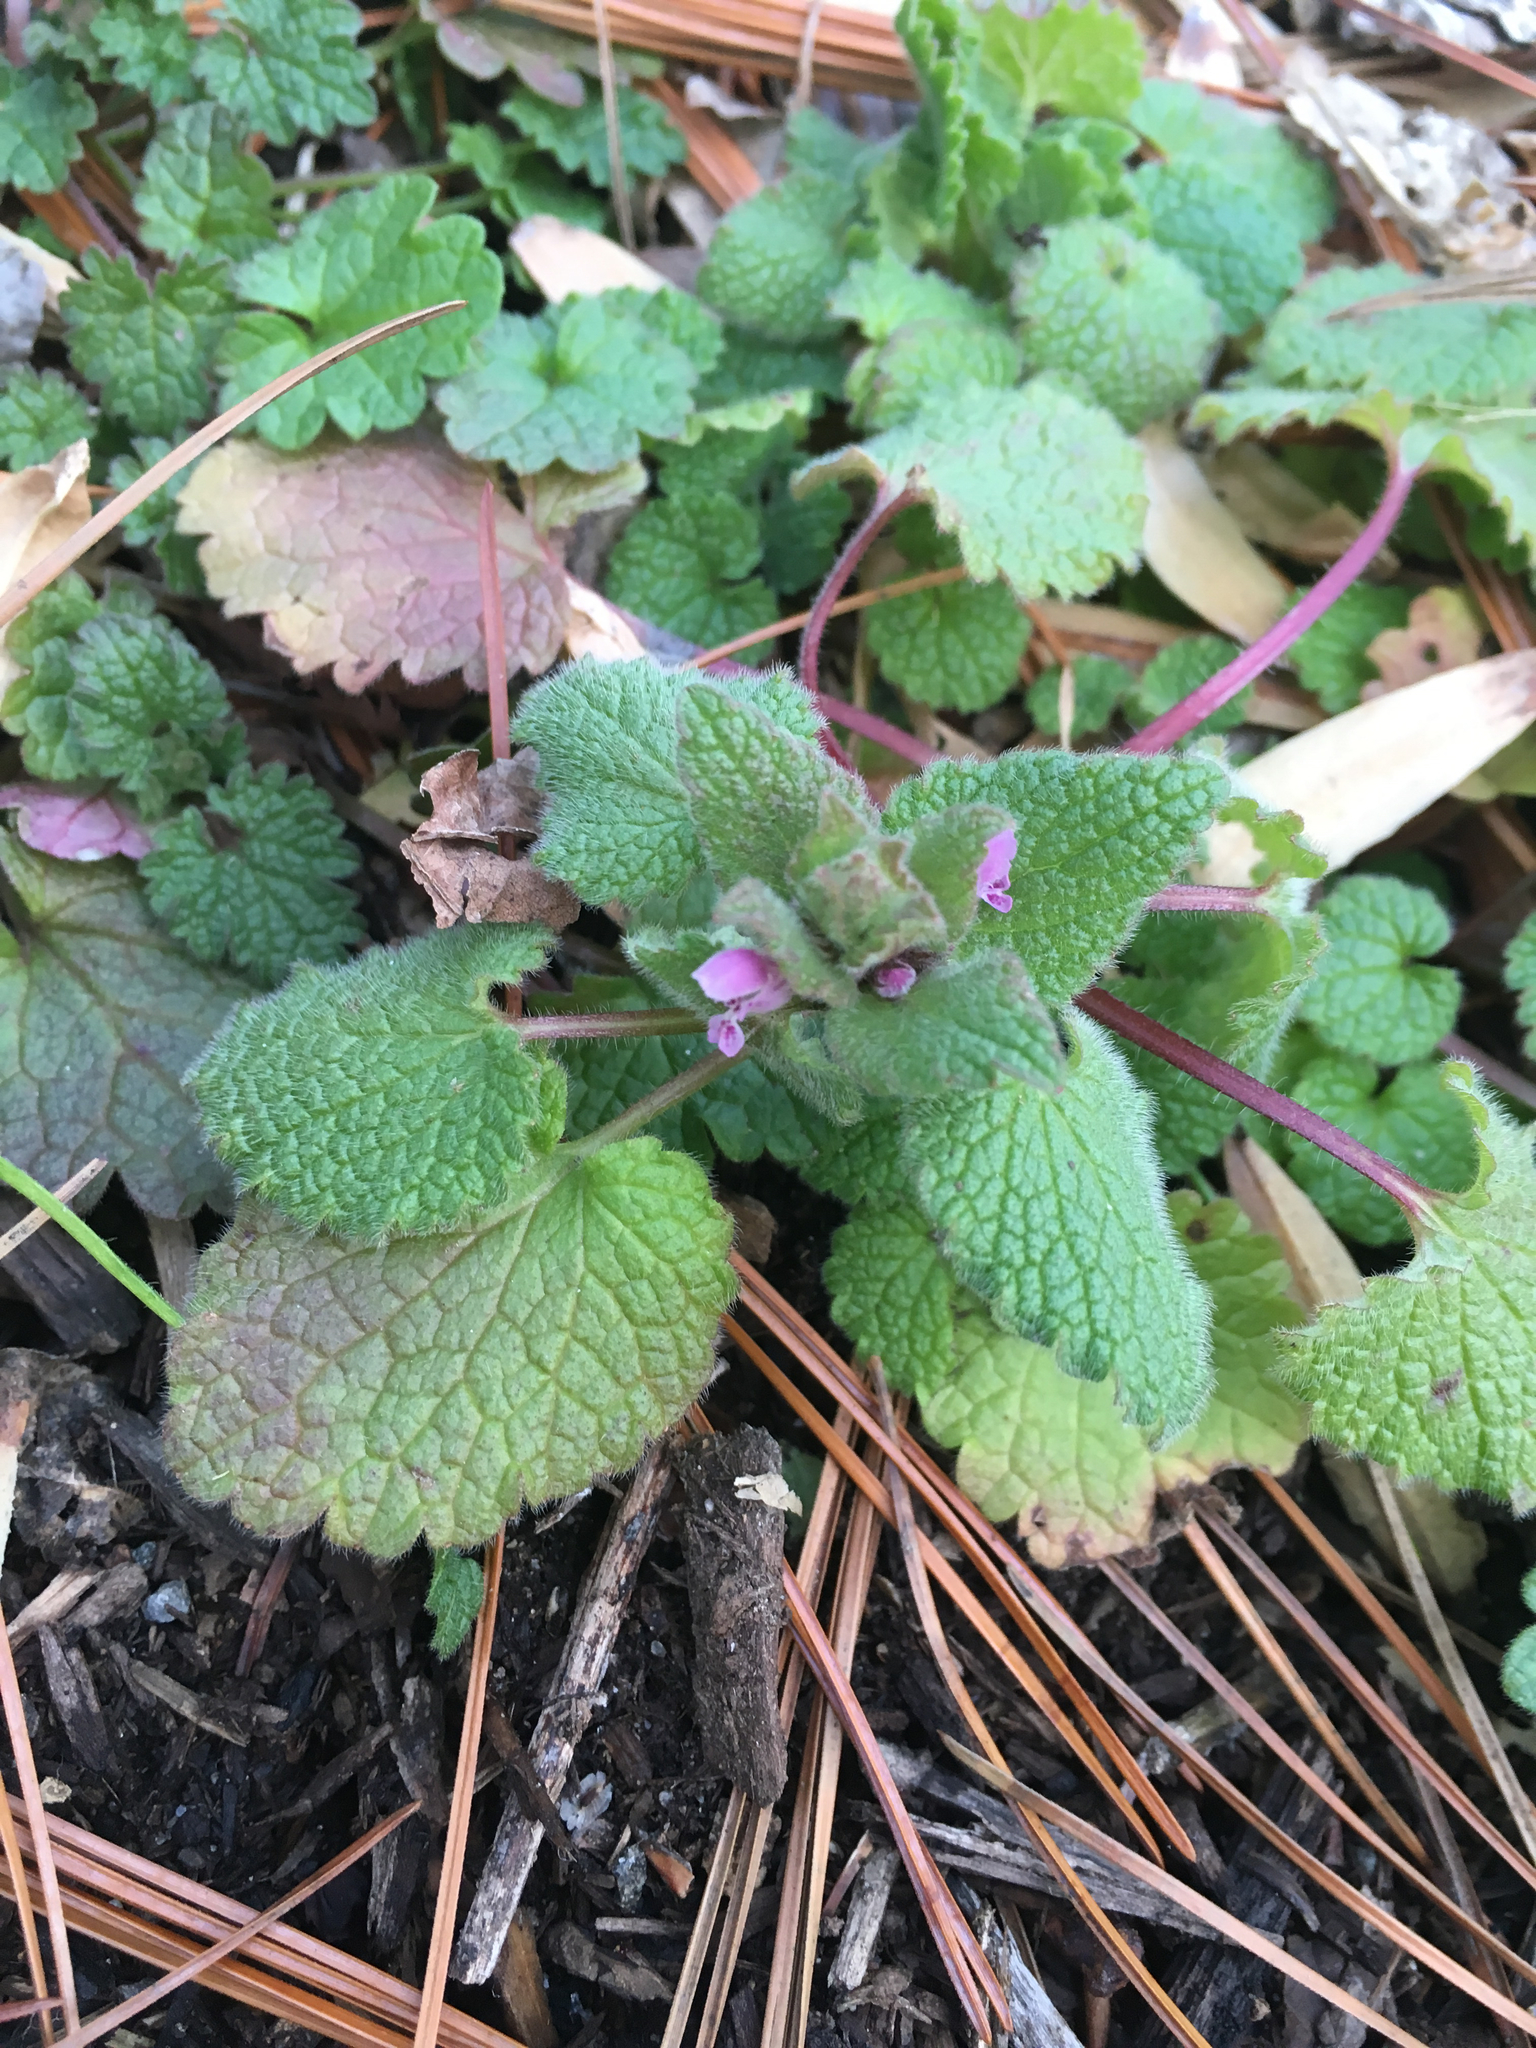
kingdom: Plantae
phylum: Tracheophyta
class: Magnoliopsida
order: Lamiales
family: Lamiaceae
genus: Lamium
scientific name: Lamium purpureum
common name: Red dead-nettle
